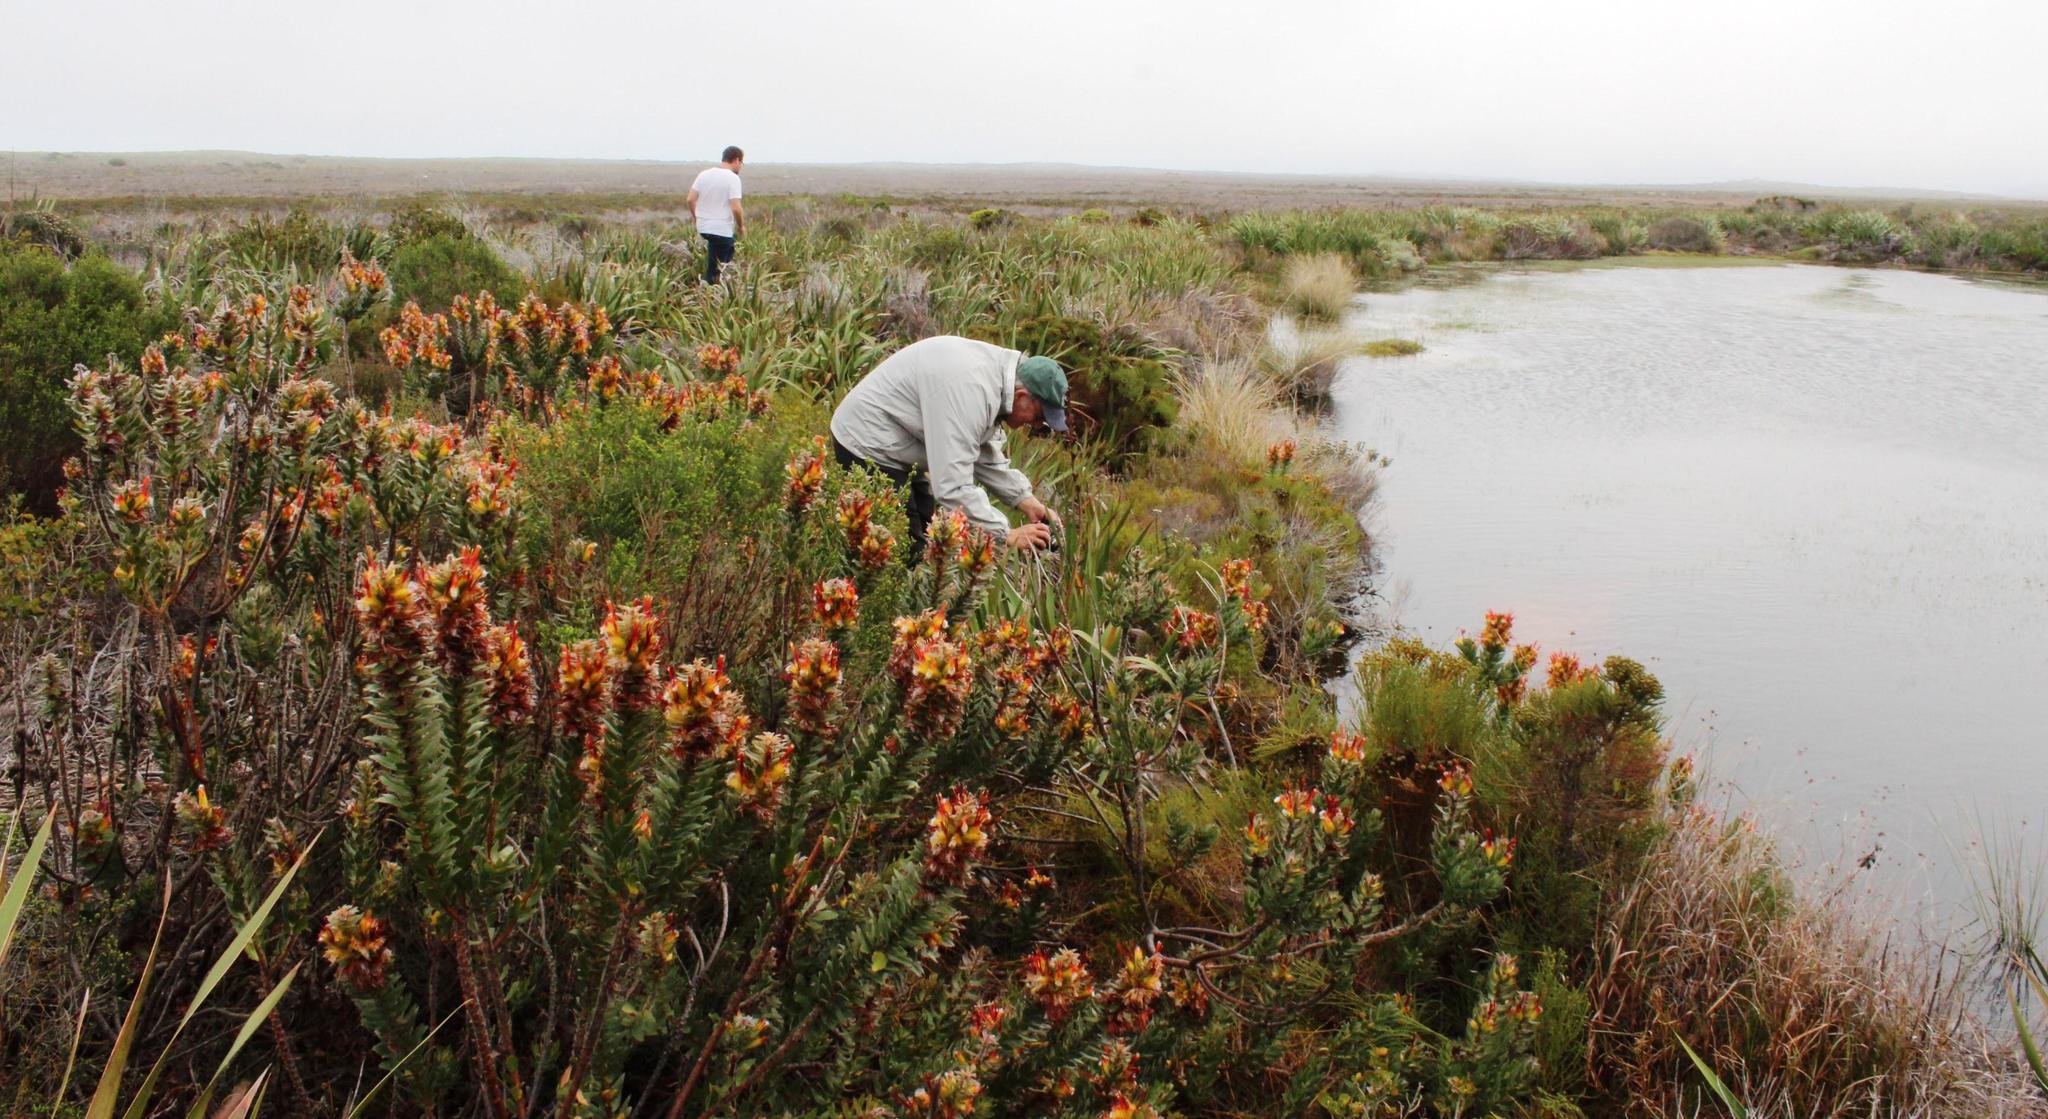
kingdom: Plantae
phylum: Tracheophyta
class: Magnoliopsida
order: Proteales
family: Proteaceae
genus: Mimetes
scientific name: Mimetes hirtus
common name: Marsh pagoda
